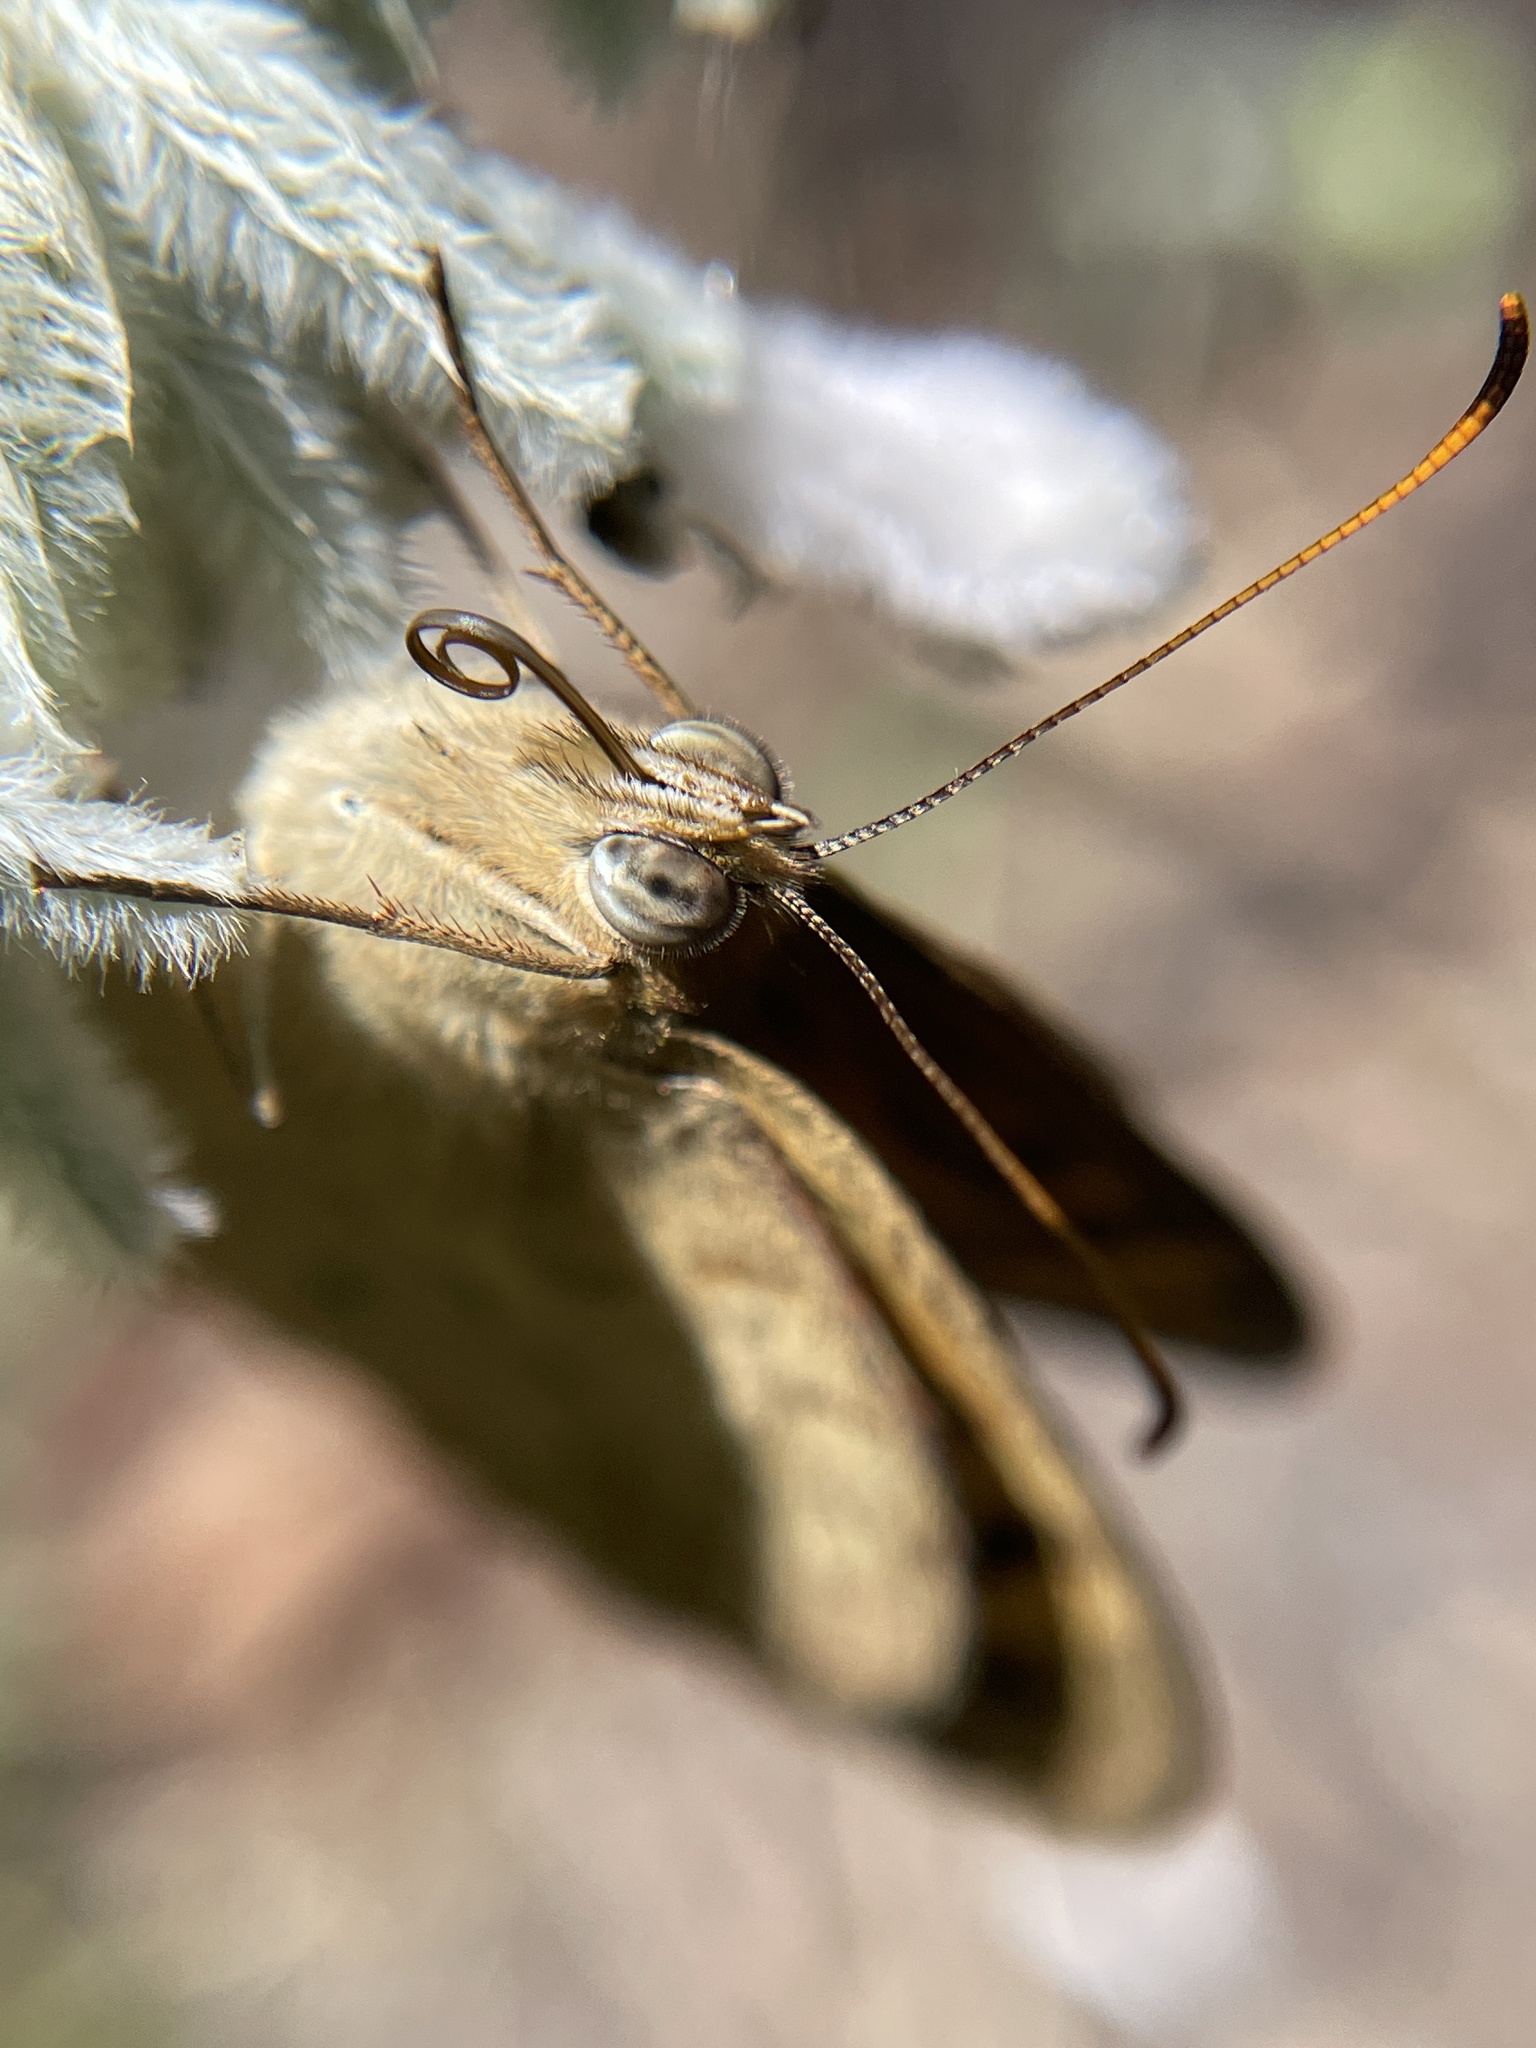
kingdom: Animalia
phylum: Arthropoda
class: Insecta
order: Lepidoptera
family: Nymphalidae
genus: Heteronympha
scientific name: Heteronympha merope
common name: Common brown
